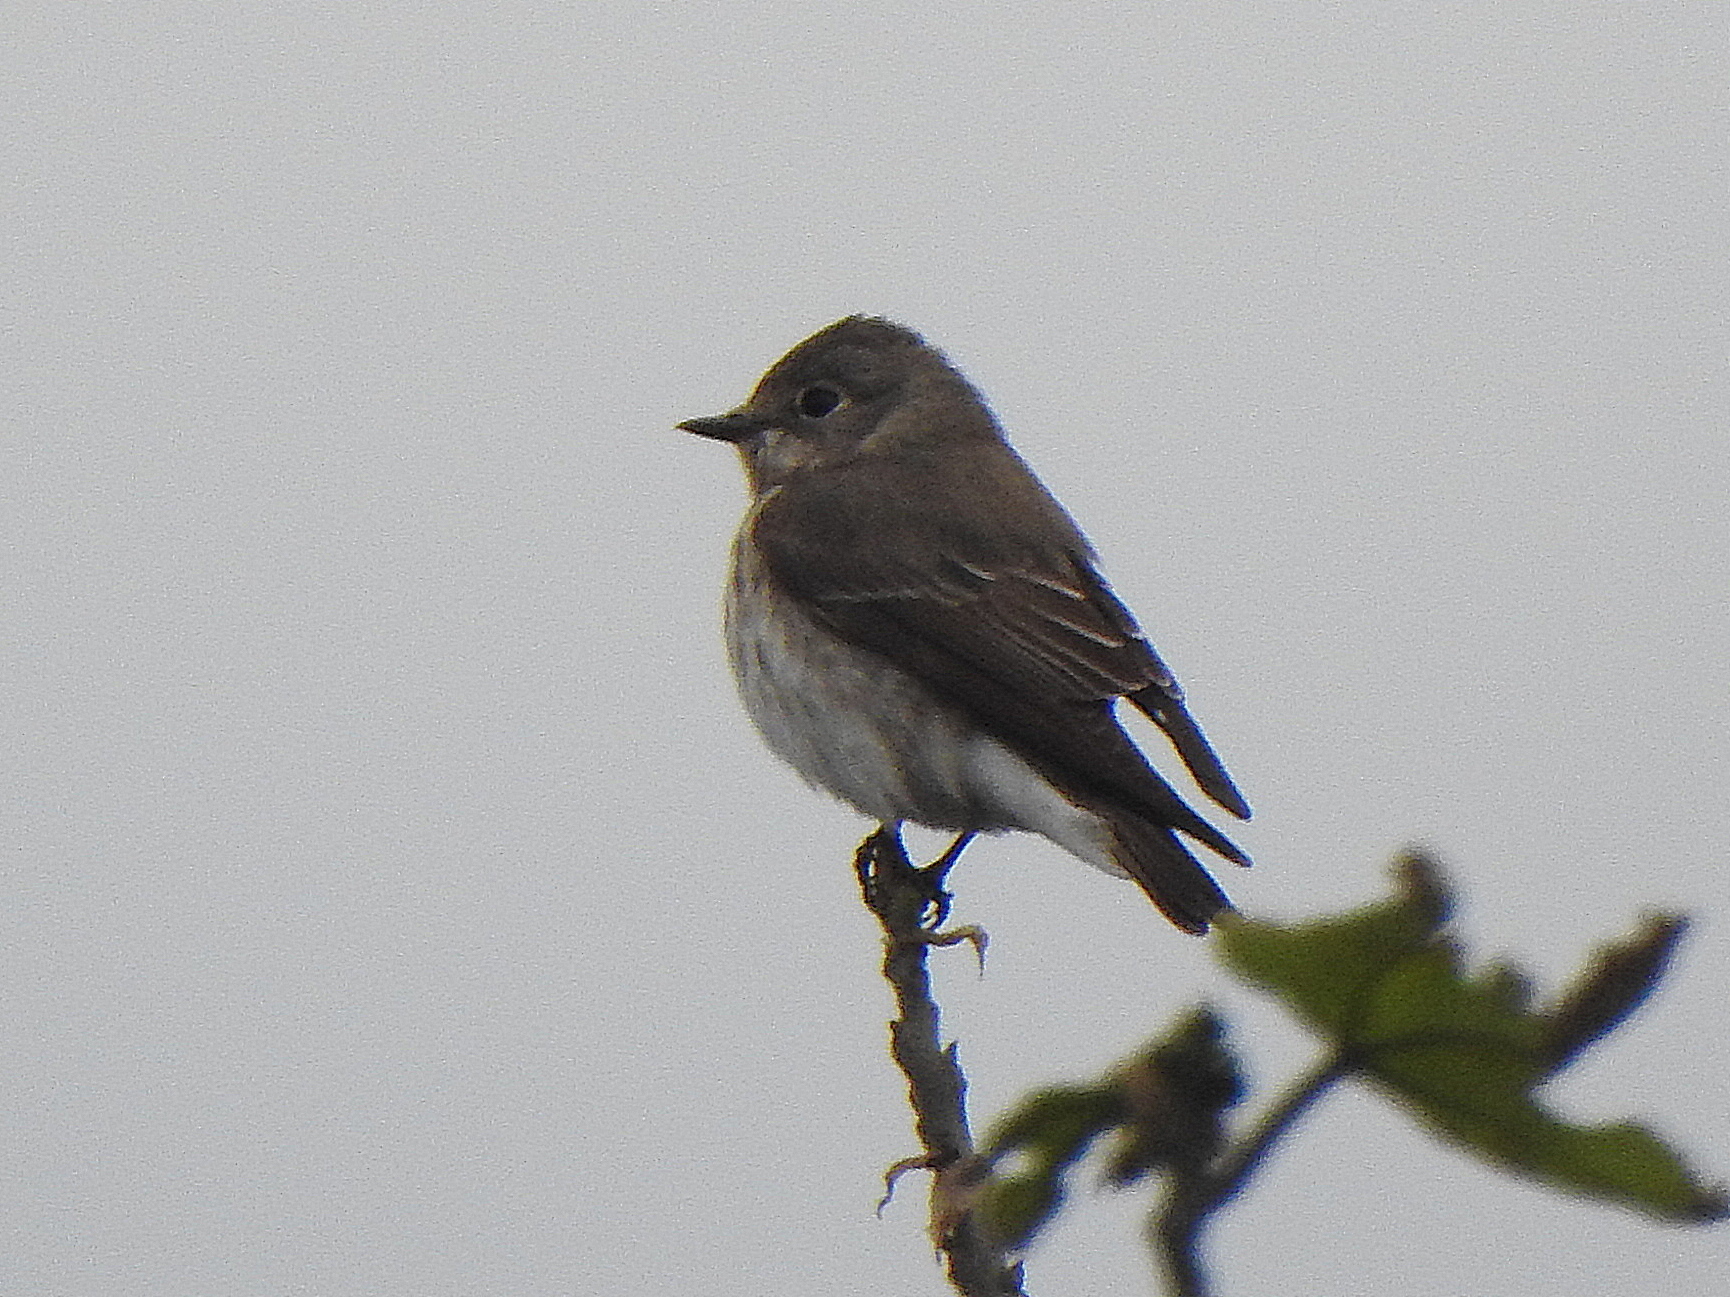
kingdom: Animalia
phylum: Chordata
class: Aves
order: Passeriformes
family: Muscicapidae
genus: Muscicapa
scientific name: Muscicapa griseisticta
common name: Gray-streaked flycatcher
